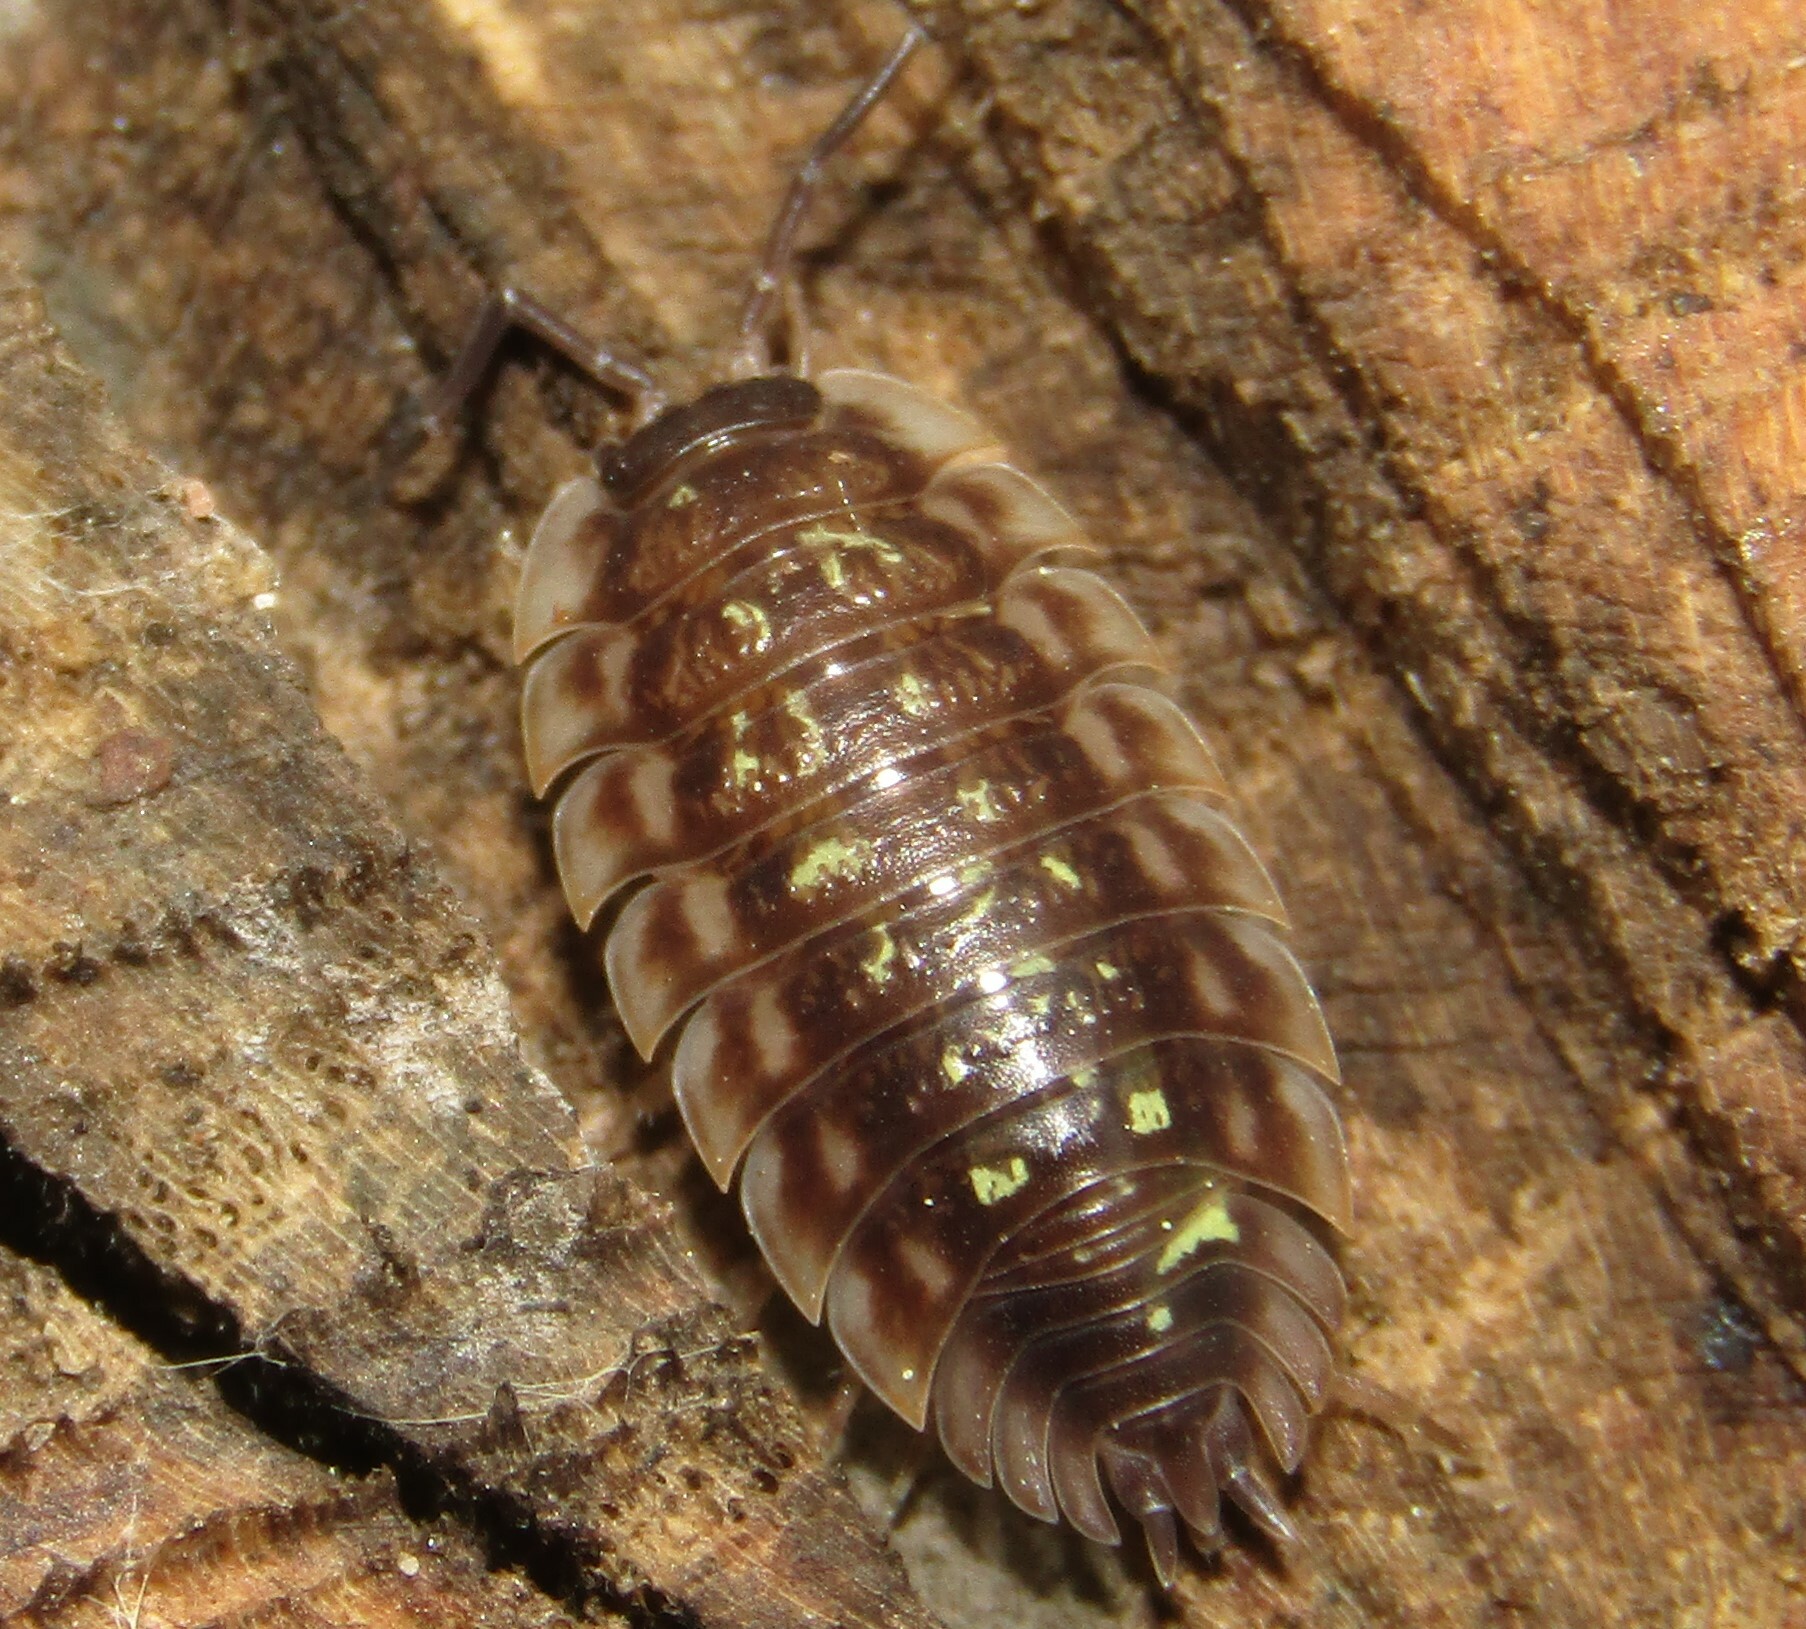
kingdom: Animalia
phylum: Arthropoda
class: Malacostraca
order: Isopoda
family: Oniscidae
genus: Oniscus
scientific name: Oniscus asellus
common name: Common shiny woodlouse
